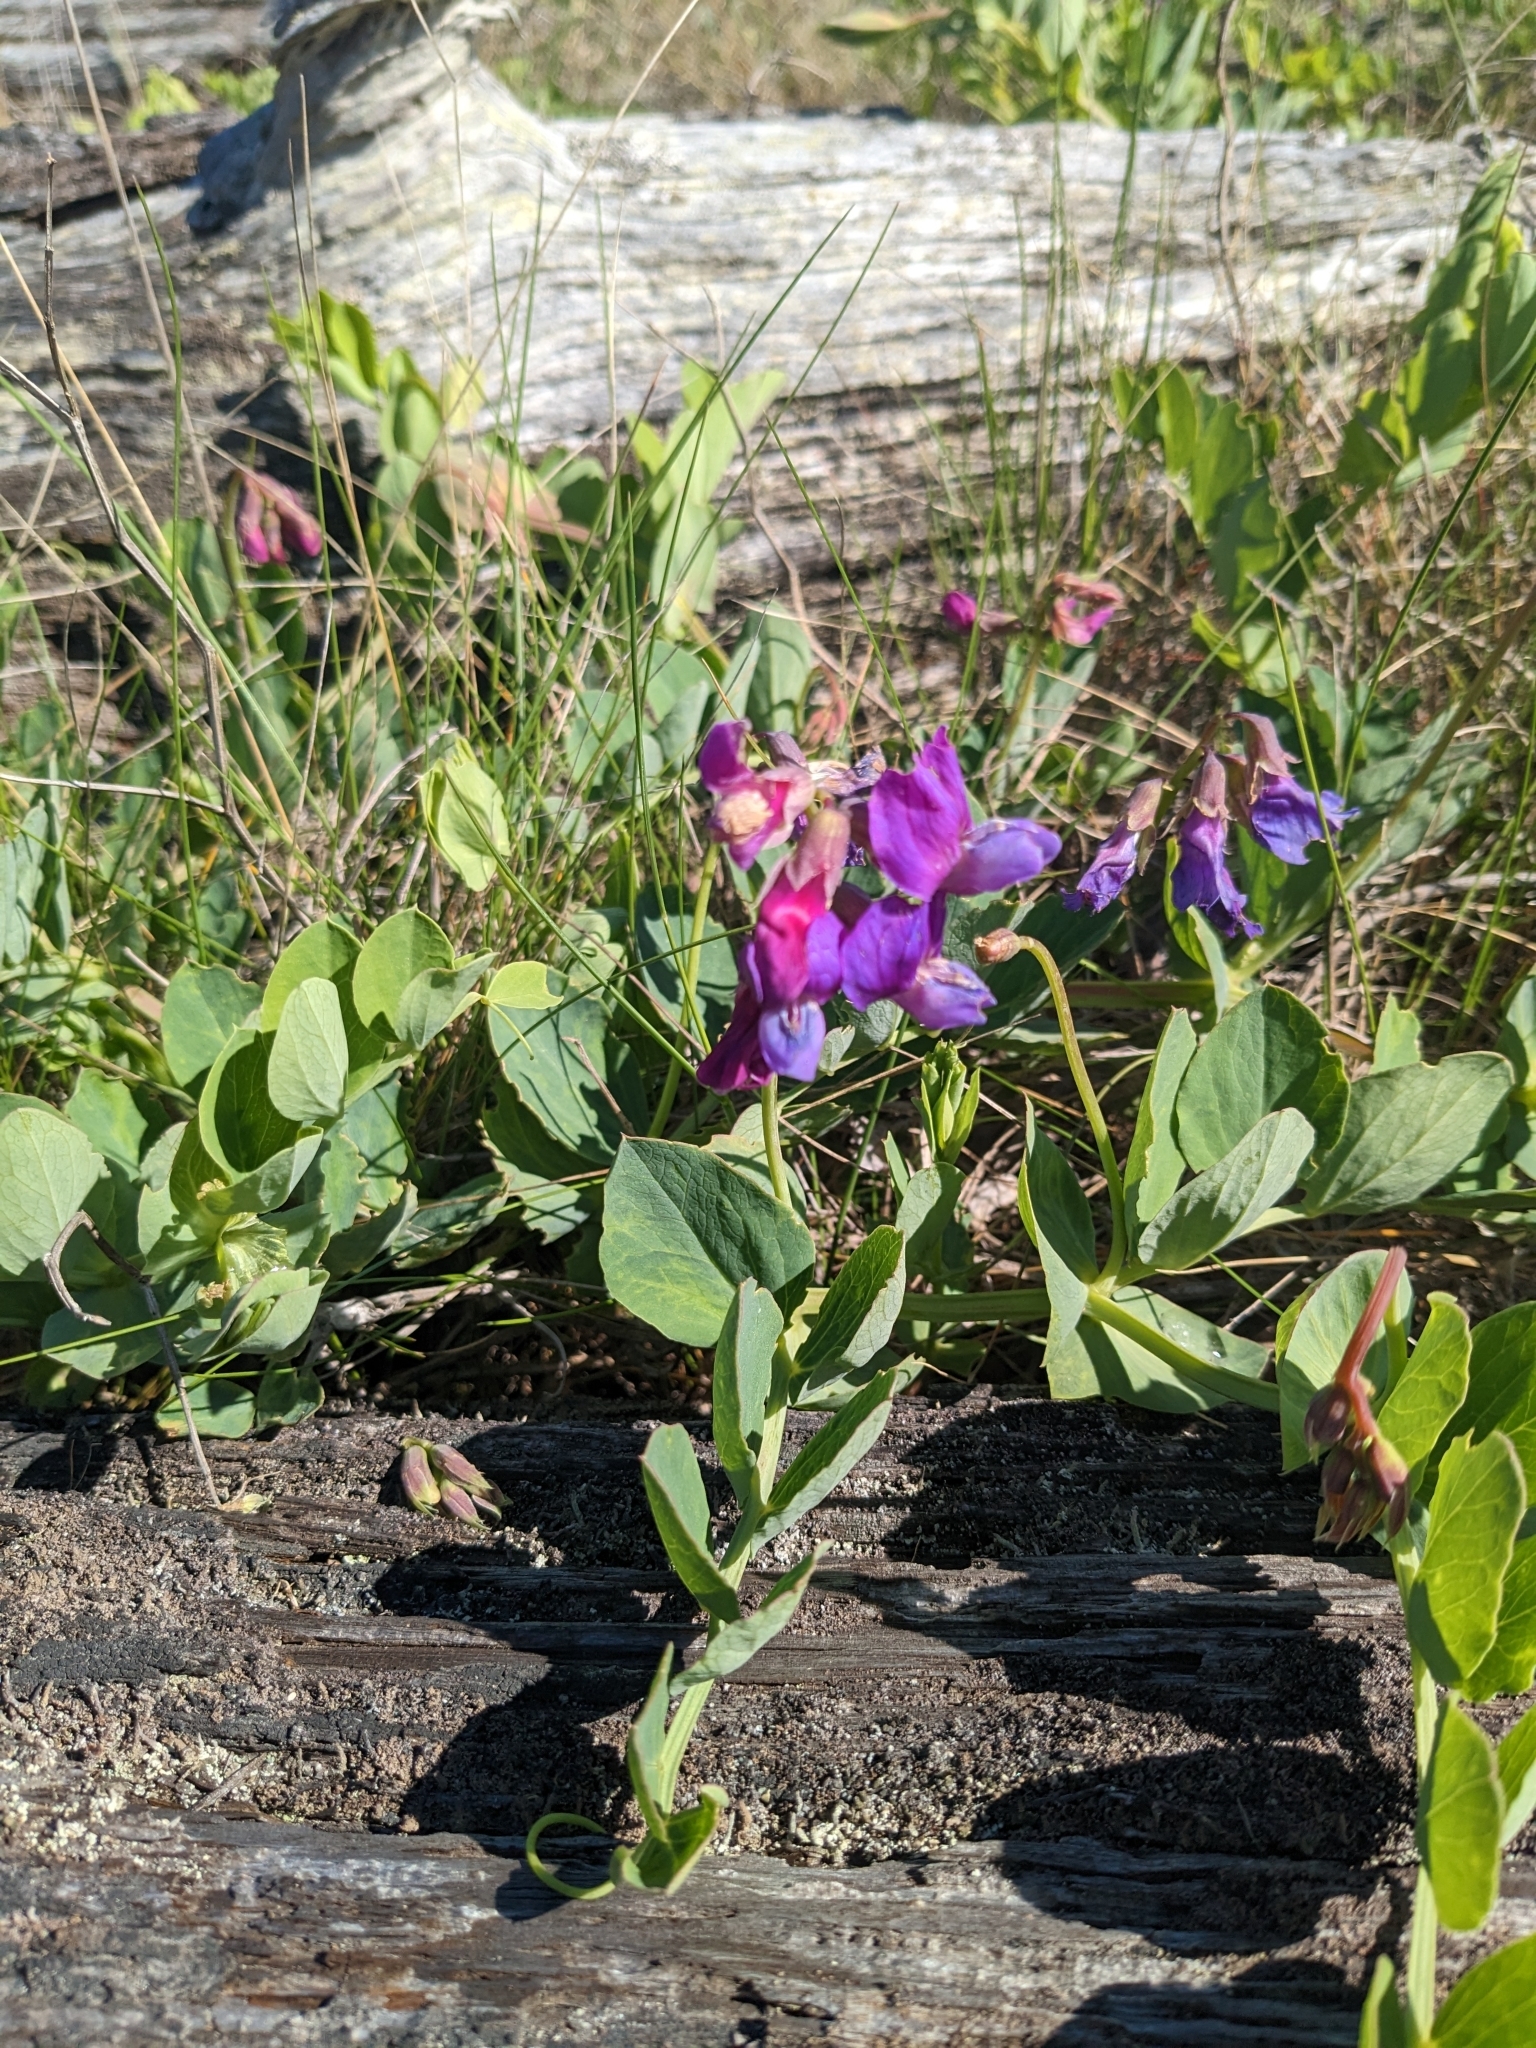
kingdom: Plantae
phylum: Tracheophyta
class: Magnoliopsida
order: Fabales
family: Fabaceae
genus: Lathyrus
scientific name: Lathyrus japonicus
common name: Sea pea
